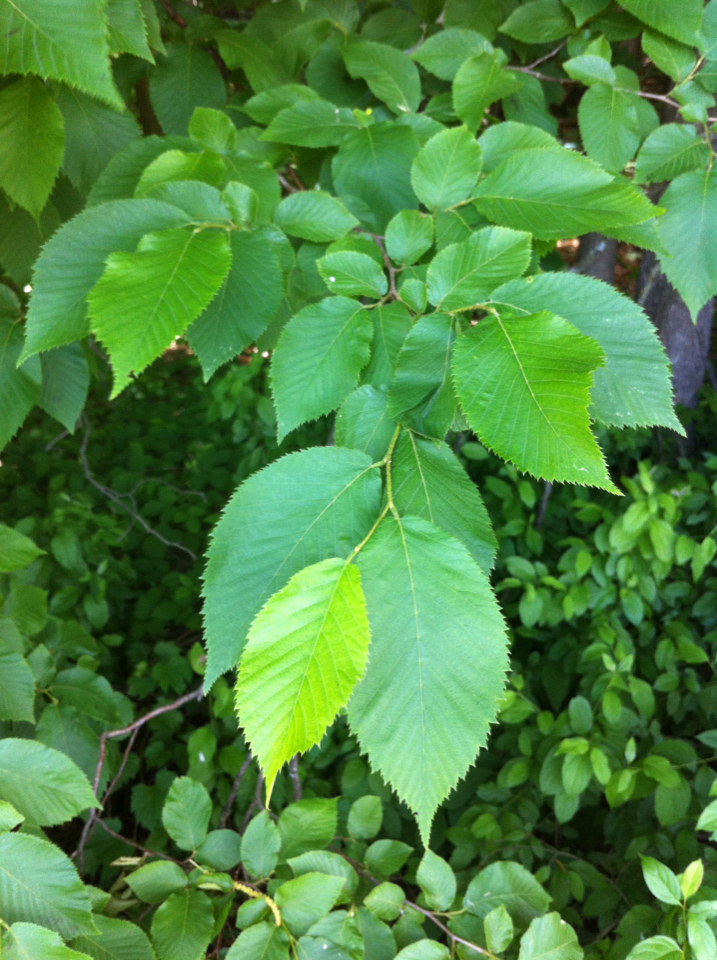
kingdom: Plantae
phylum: Tracheophyta
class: Magnoliopsida
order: Fagales
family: Betulaceae
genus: Ostrya
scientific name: Ostrya virginiana
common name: Ironwood
